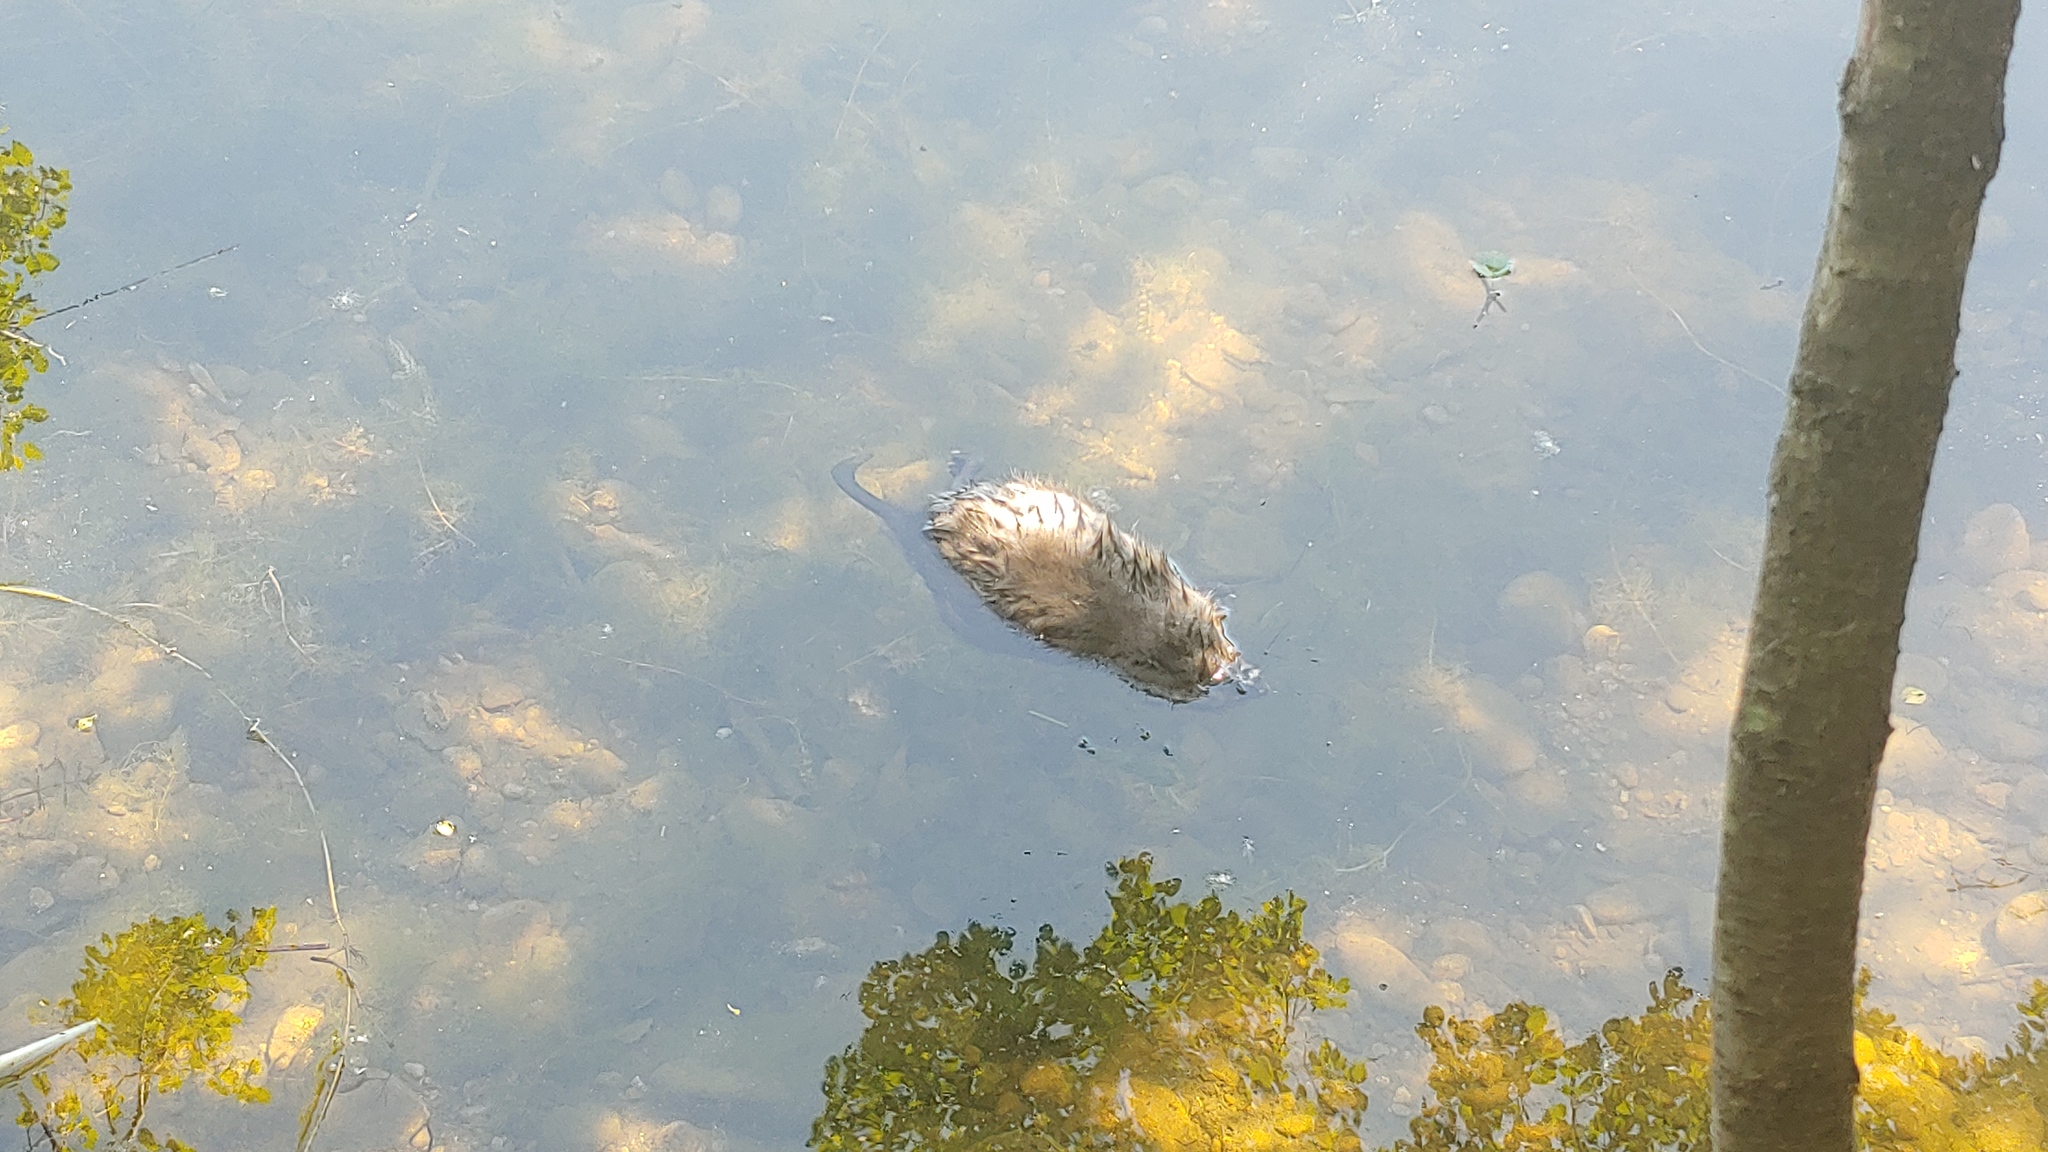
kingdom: Animalia
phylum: Chordata
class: Mammalia
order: Rodentia
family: Cricetidae
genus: Ondatra
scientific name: Ondatra zibethicus
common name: Muskrat
